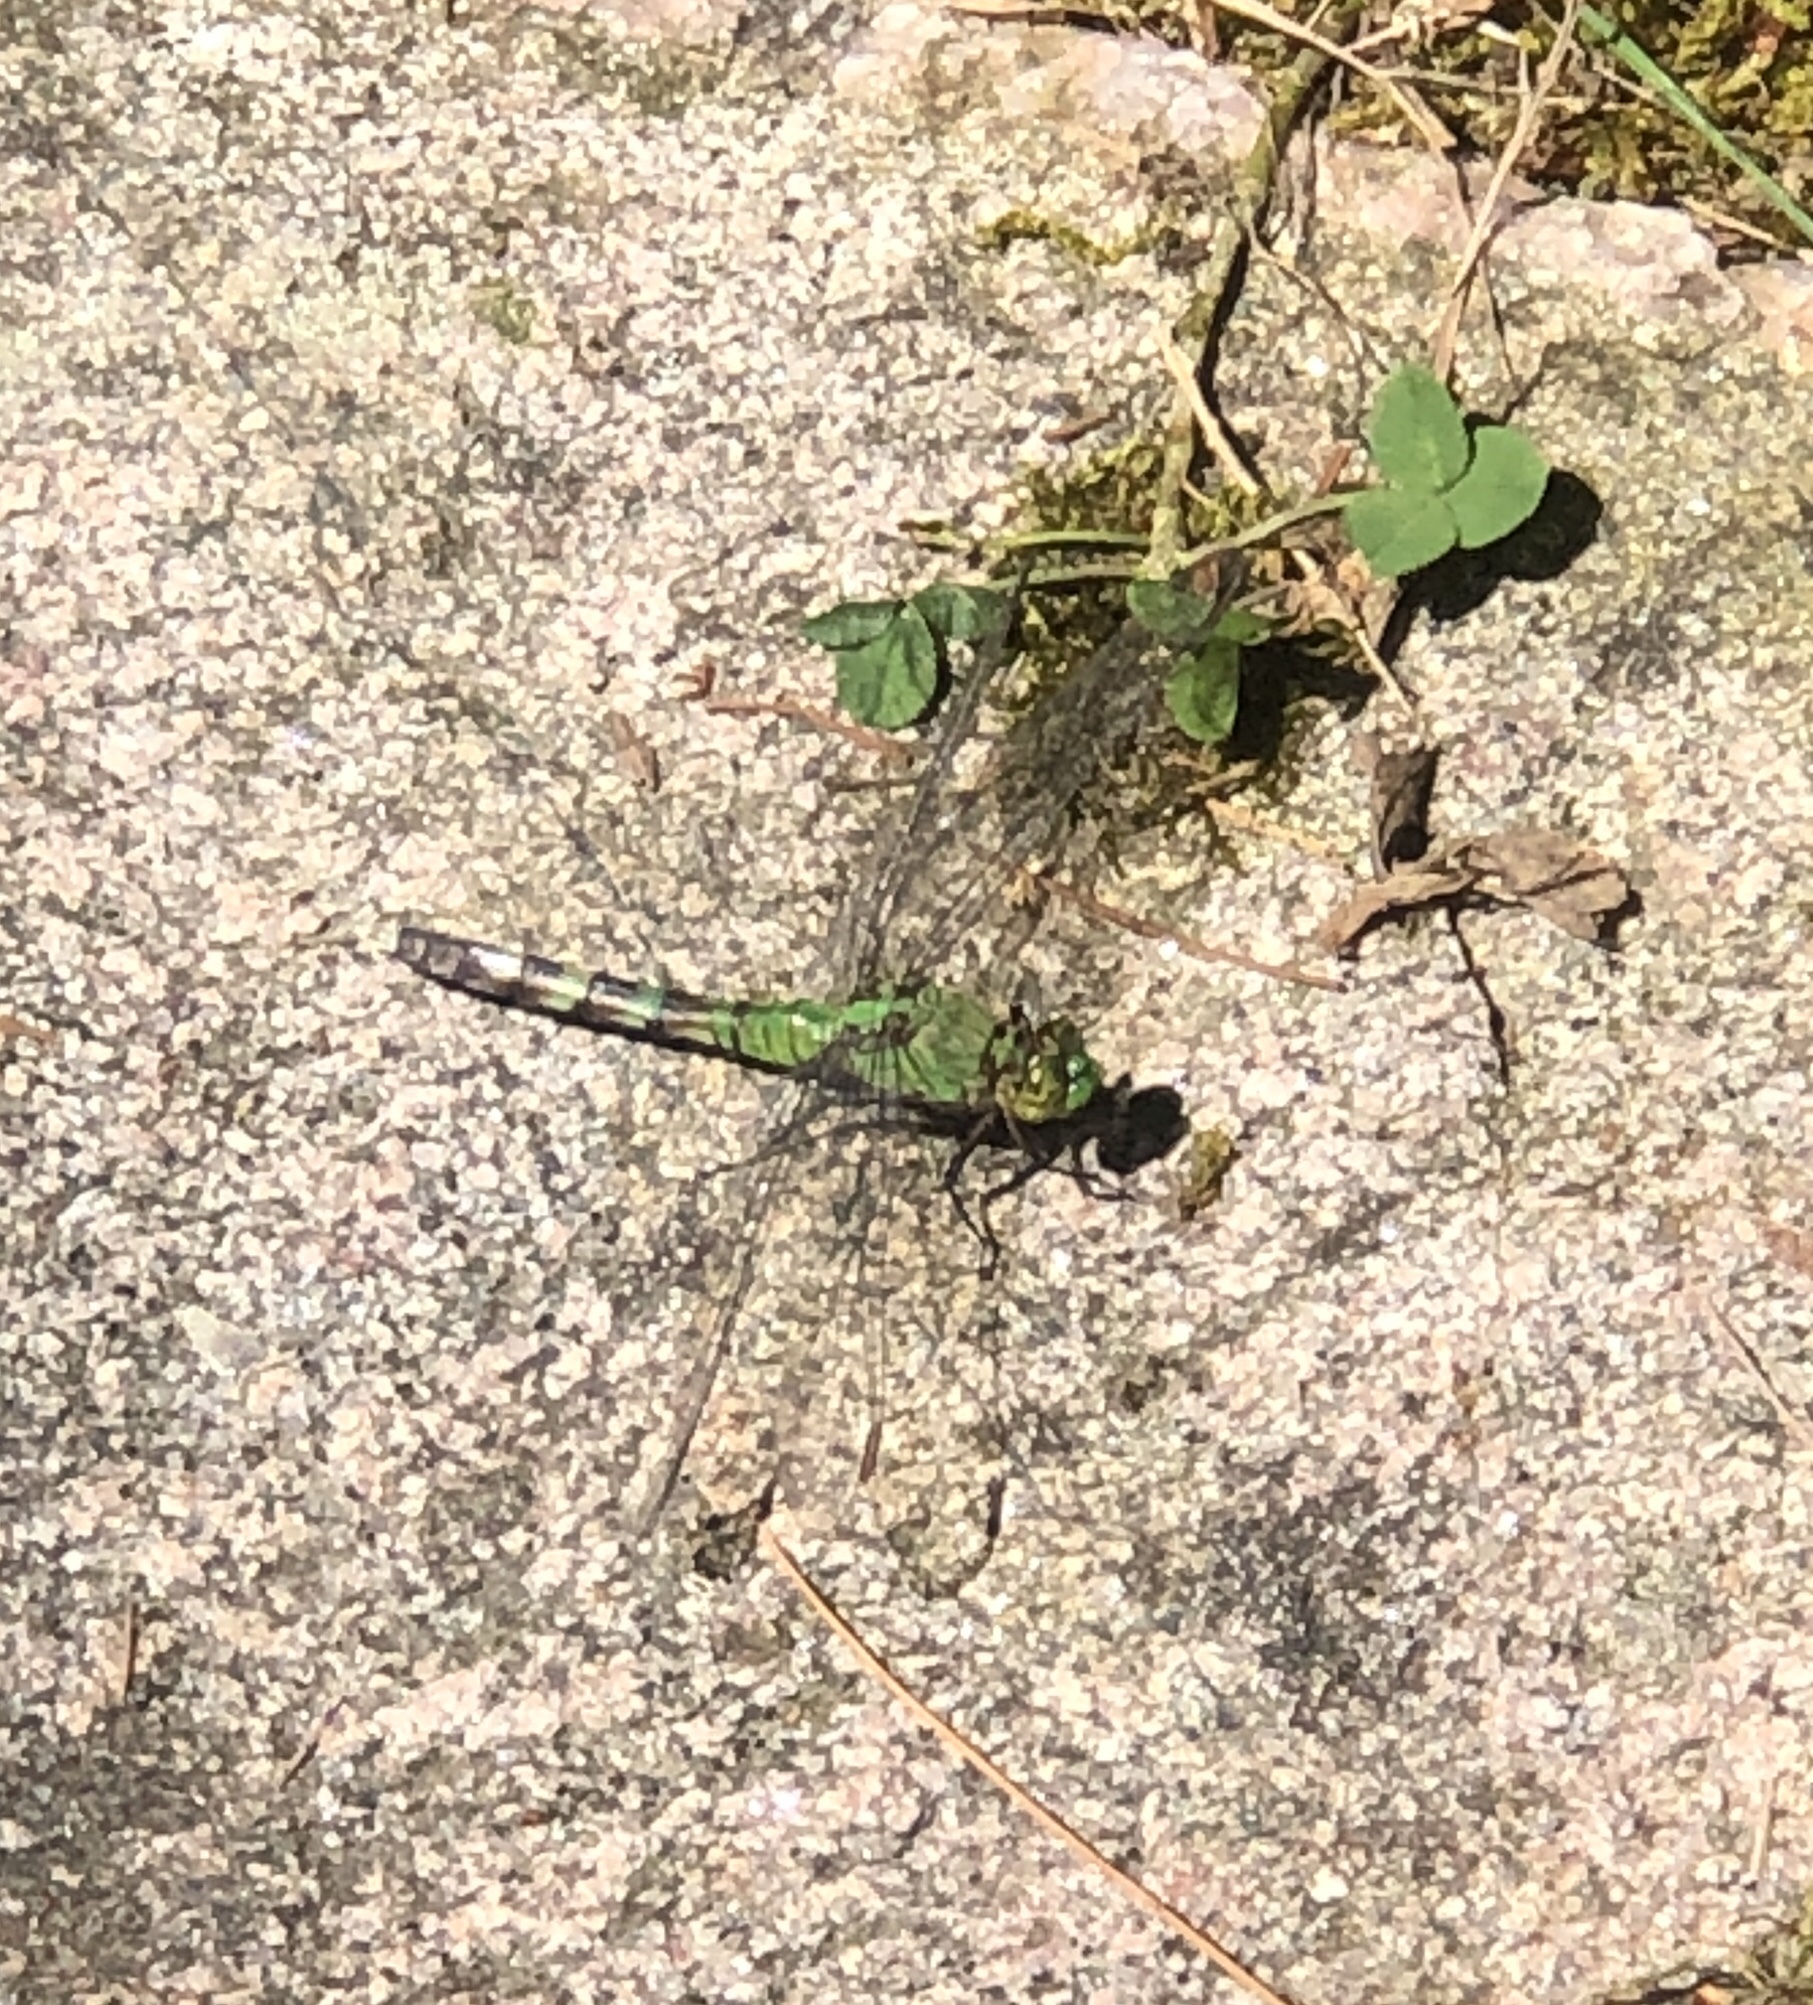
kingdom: Animalia
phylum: Arthropoda
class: Insecta
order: Odonata
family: Libellulidae
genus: Erythemis
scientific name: Erythemis simplicicollis
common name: Eastern pondhawk
